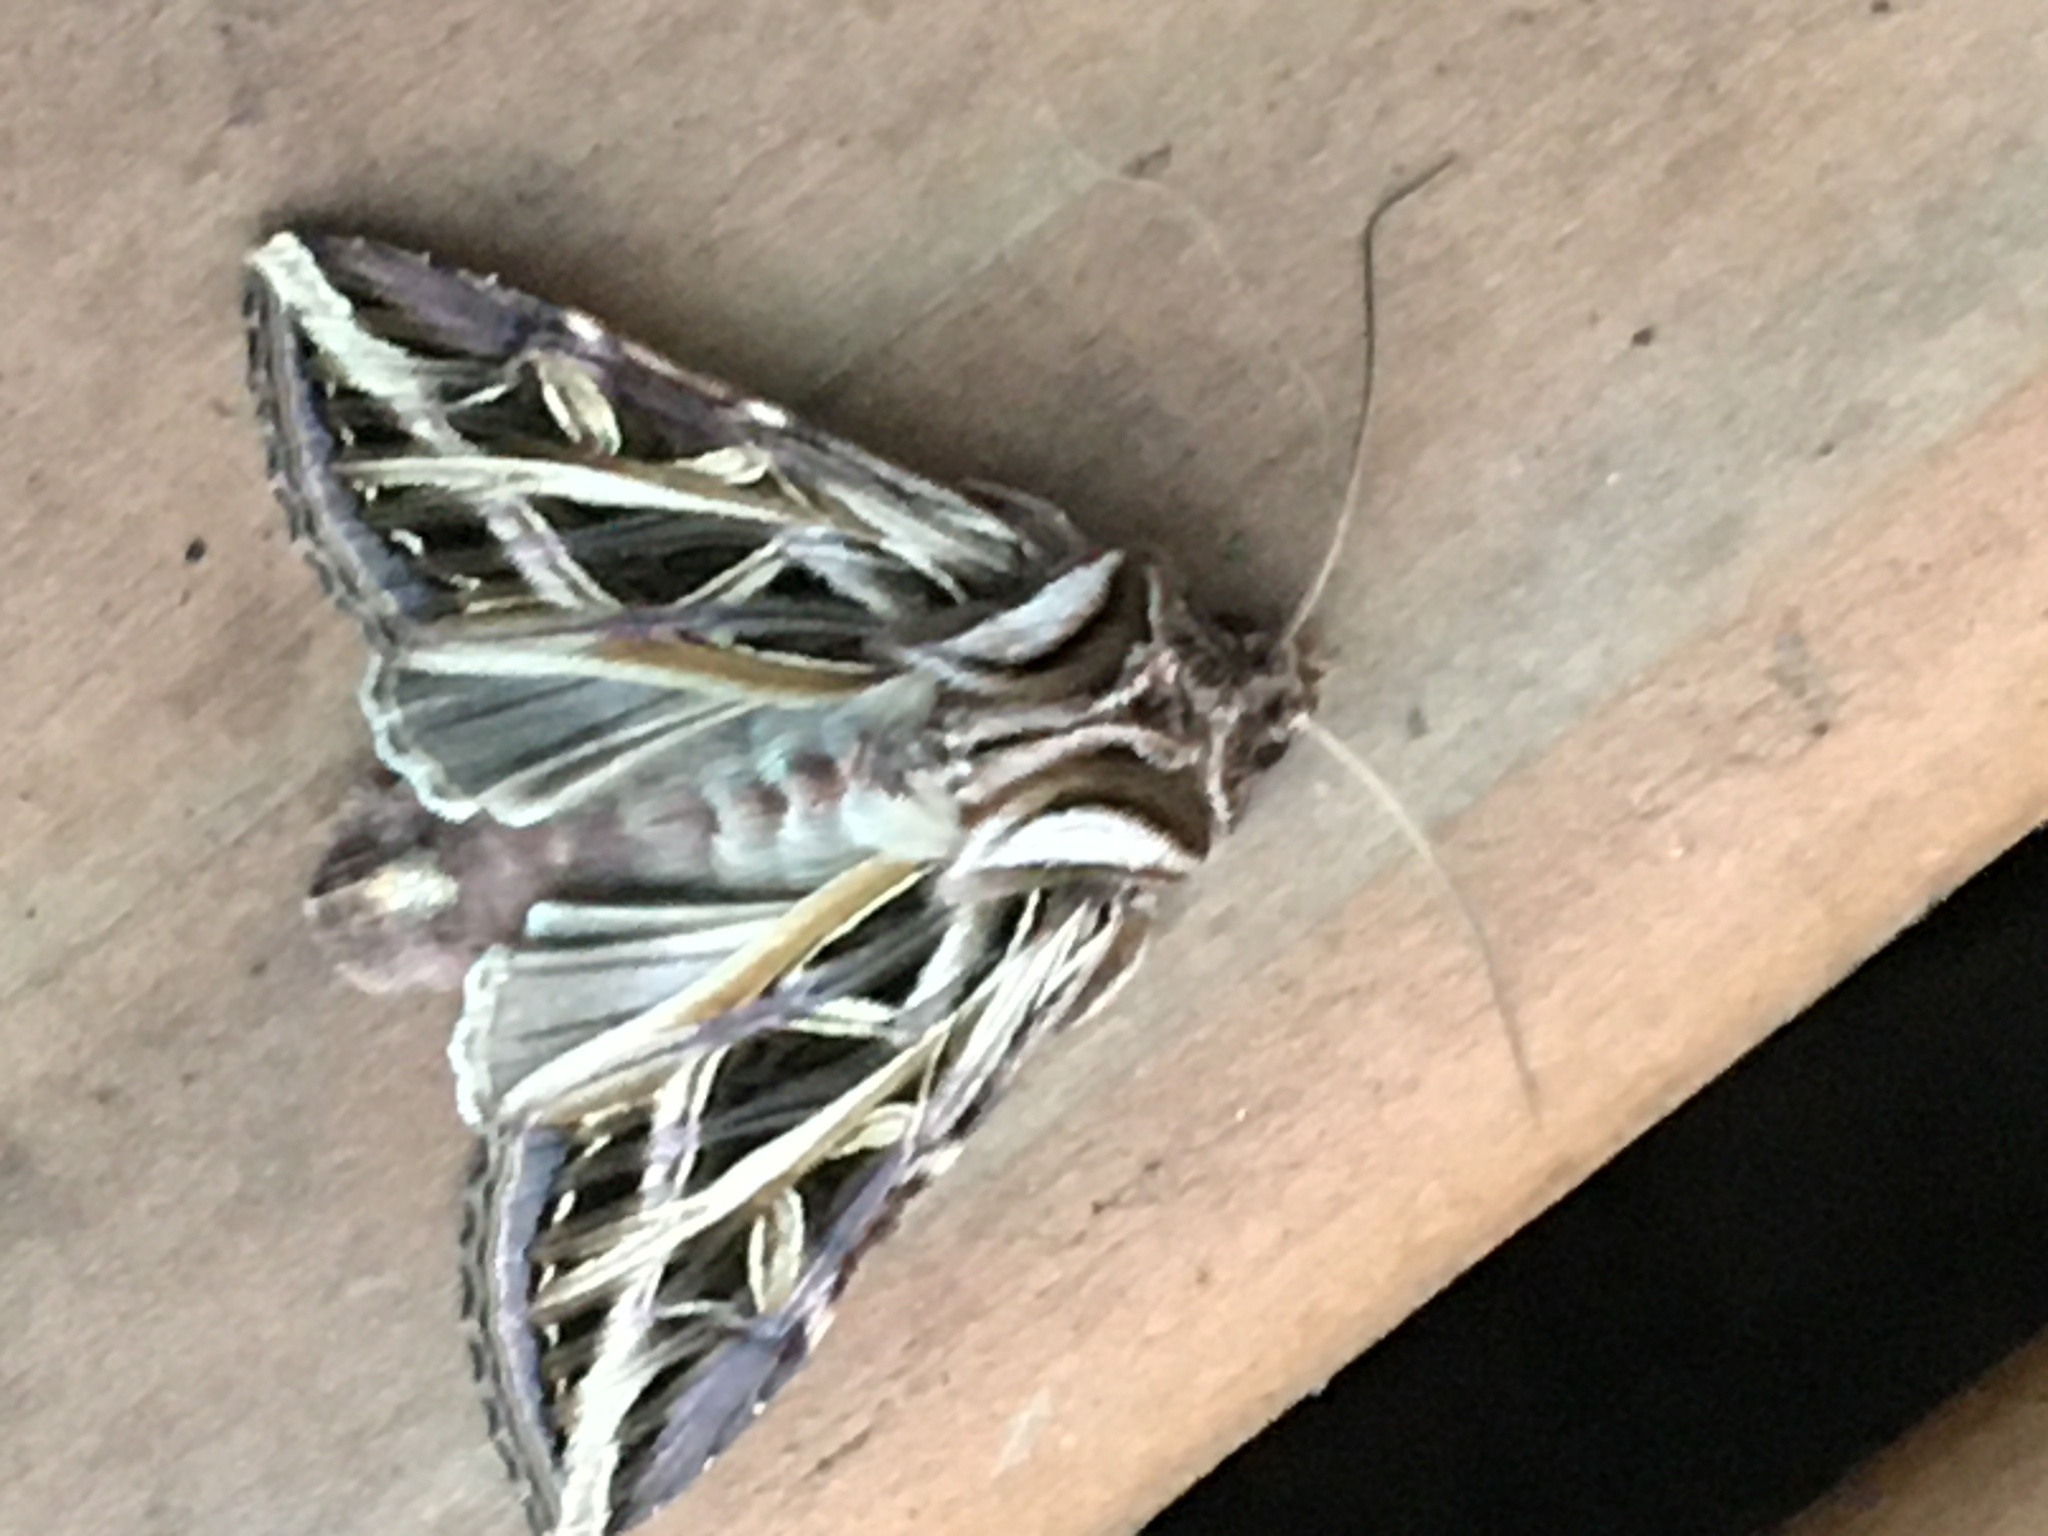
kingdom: Animalia
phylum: Arthropoda
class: Insecta
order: Lepidoptera
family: Noctuidae
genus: Dargida
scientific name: Dargida procinctus
